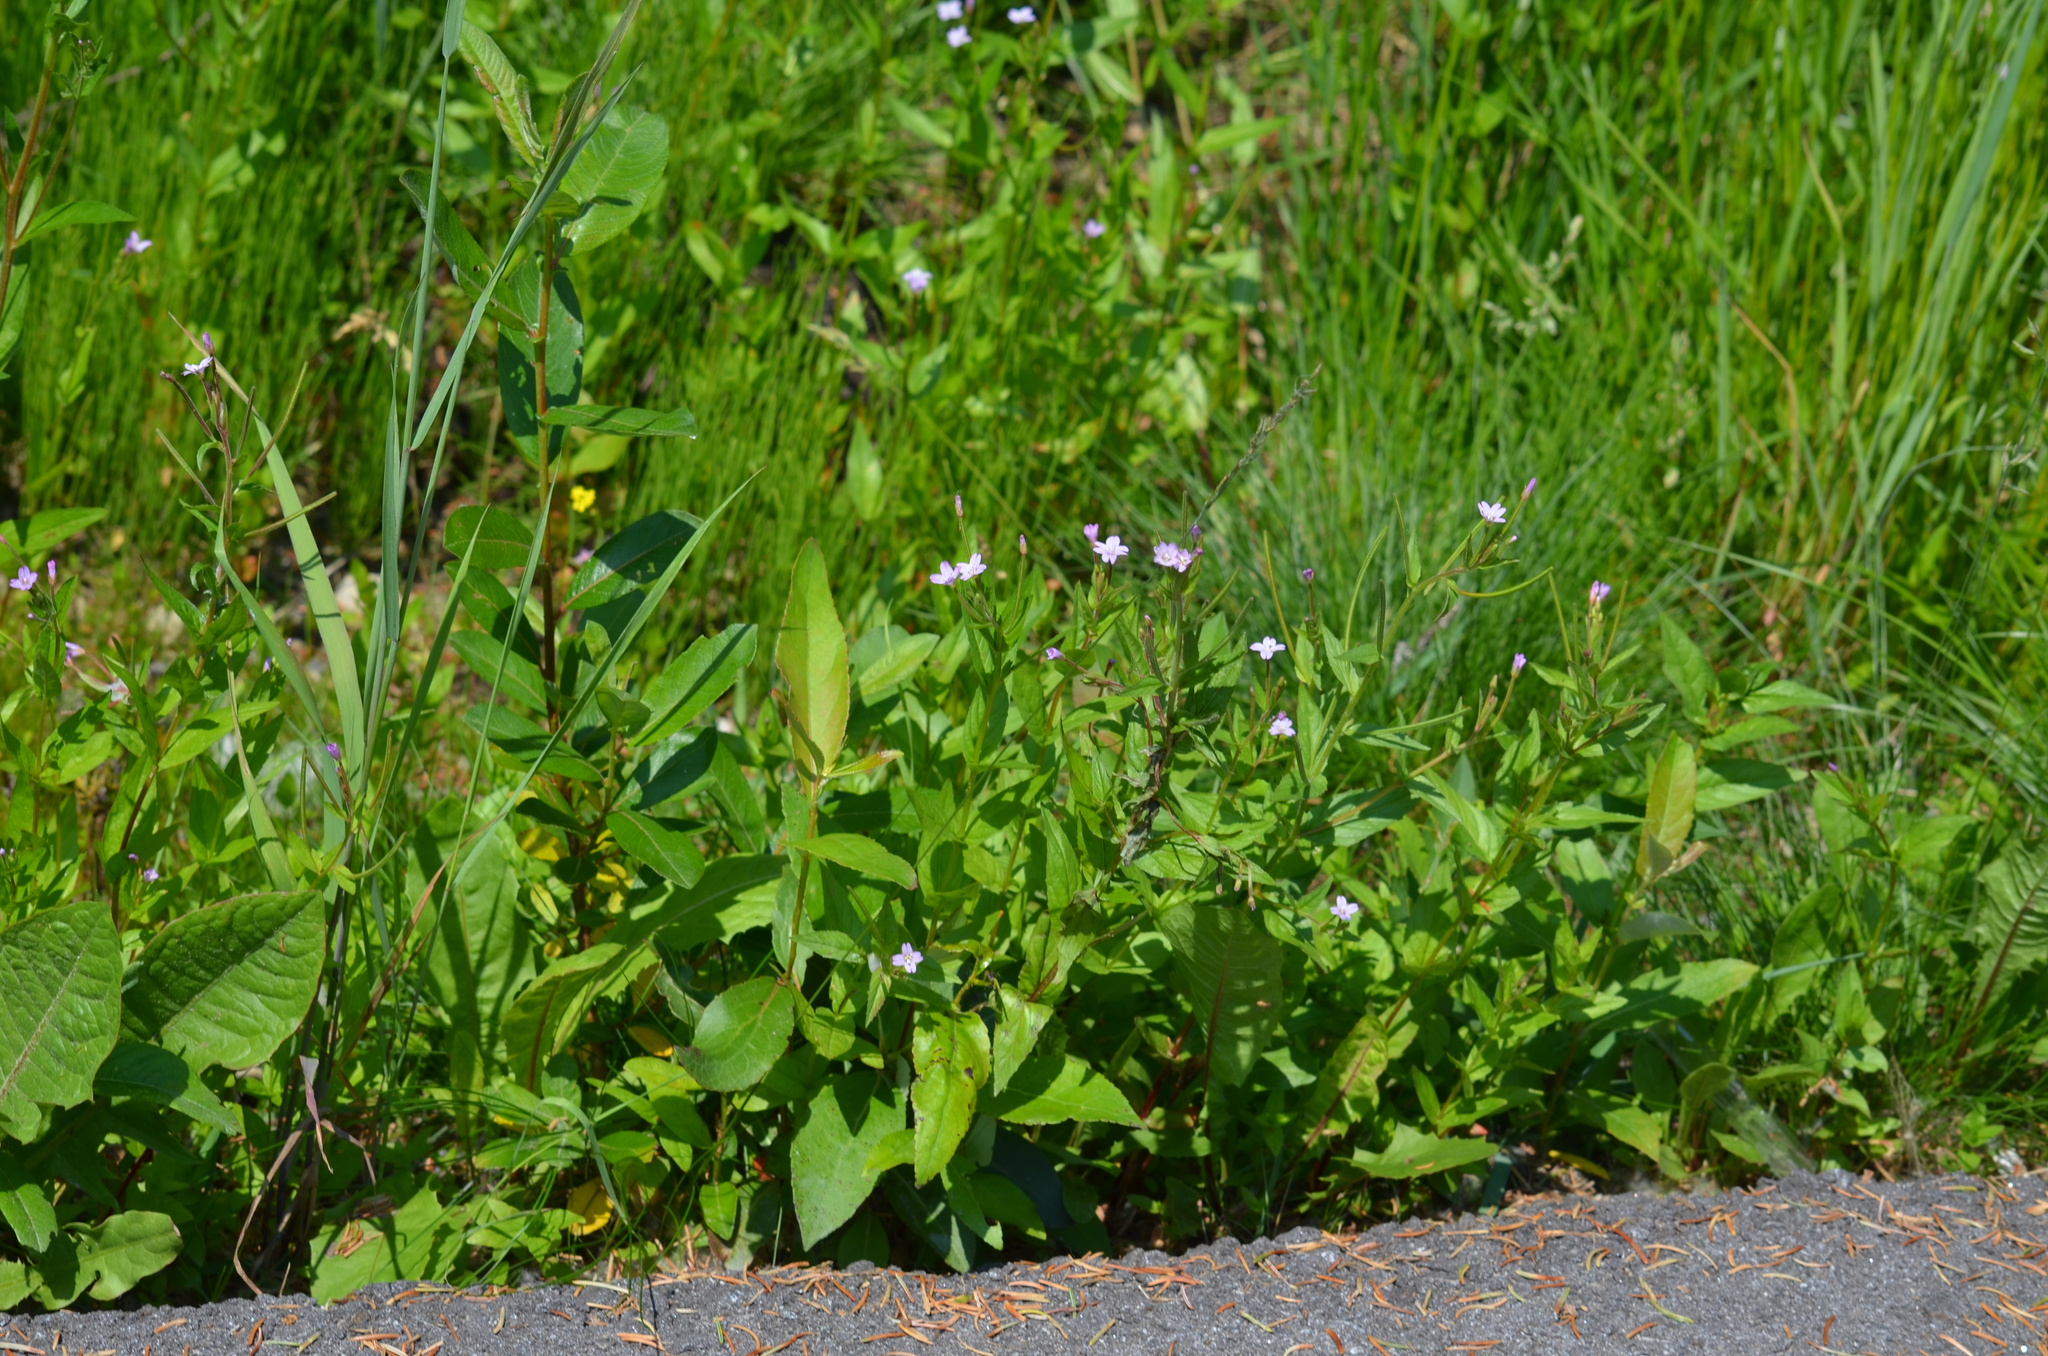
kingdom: Plantae
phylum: Tracheophyta
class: Magnoliopsida
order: Myrtales
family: Onagraceae
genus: Epilobium
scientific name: Epilobium ciliatum
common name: American willowherb
